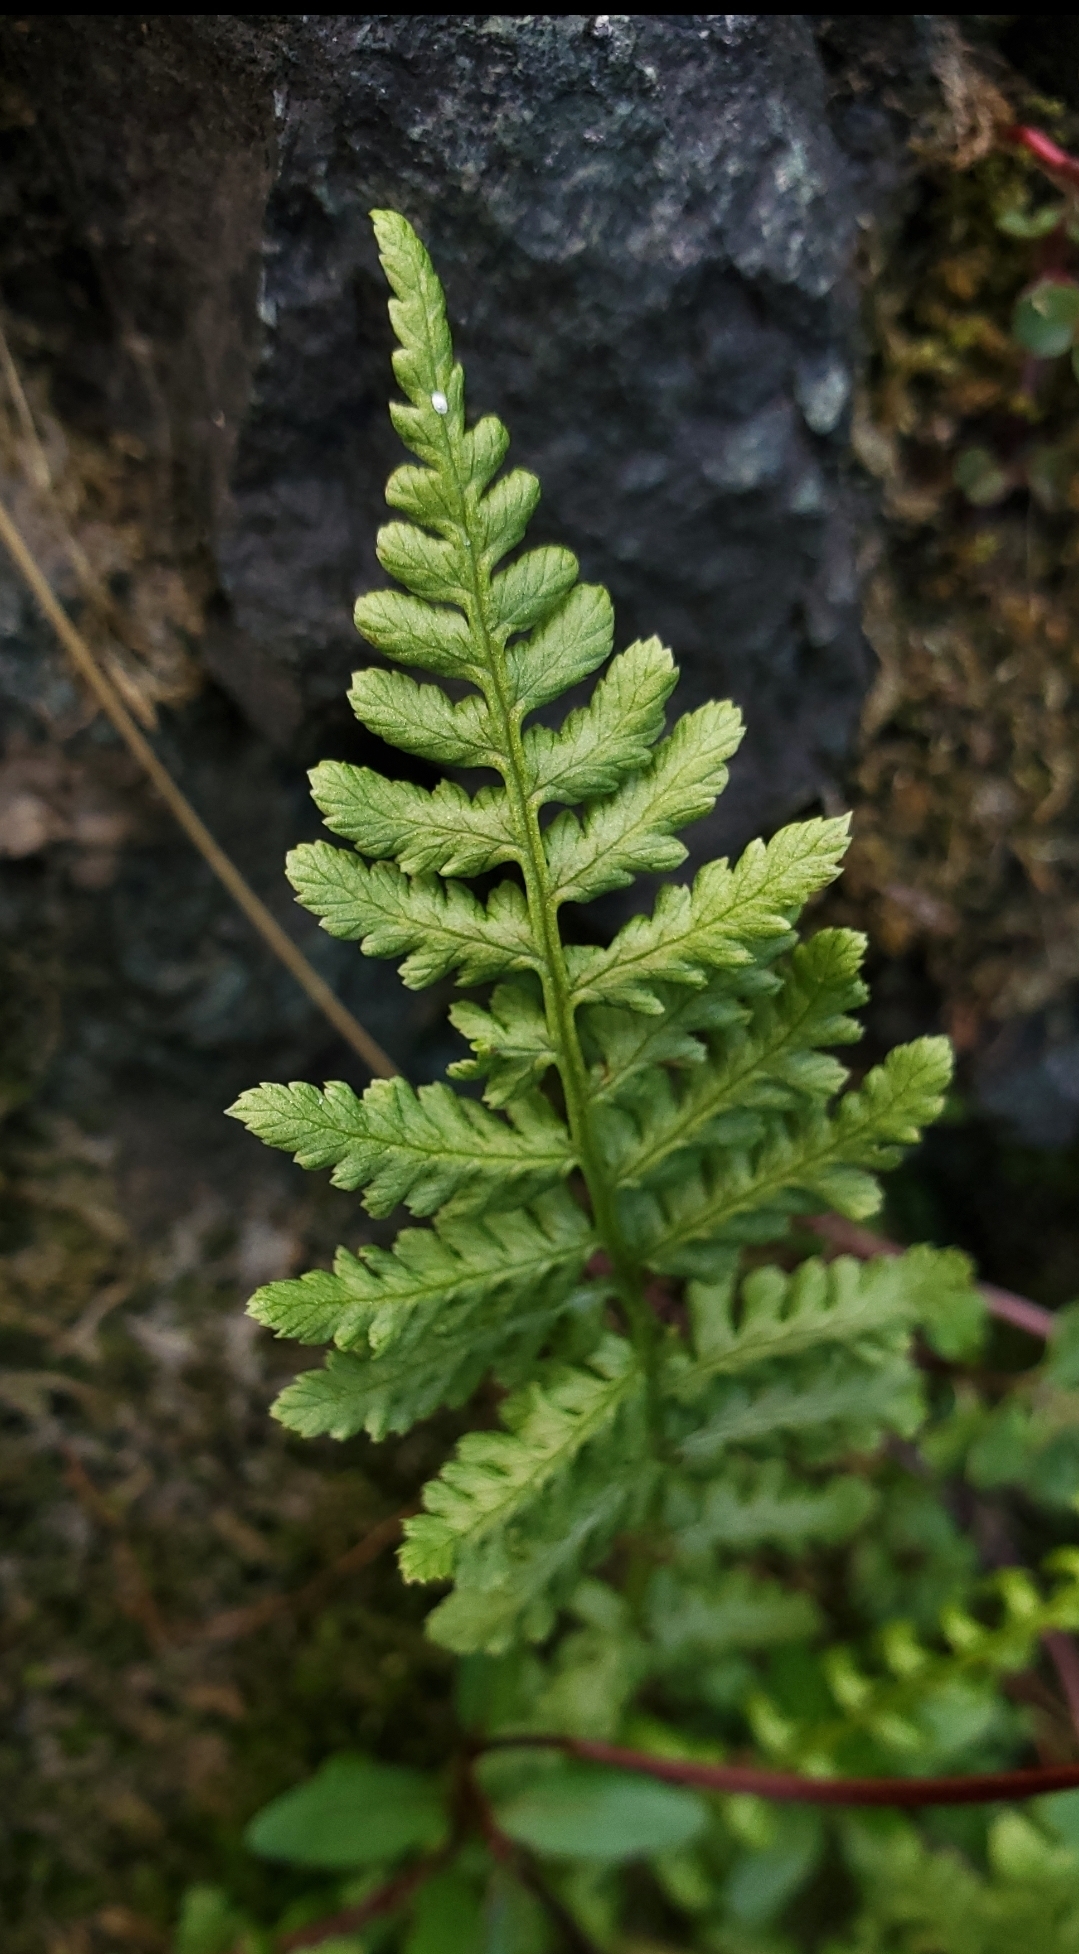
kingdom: Plantae
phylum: Tracheophyta
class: Polypodiopsida
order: Polypodiales
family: Athyriaceae
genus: Athyrium
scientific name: Athyrium cyclosorum
